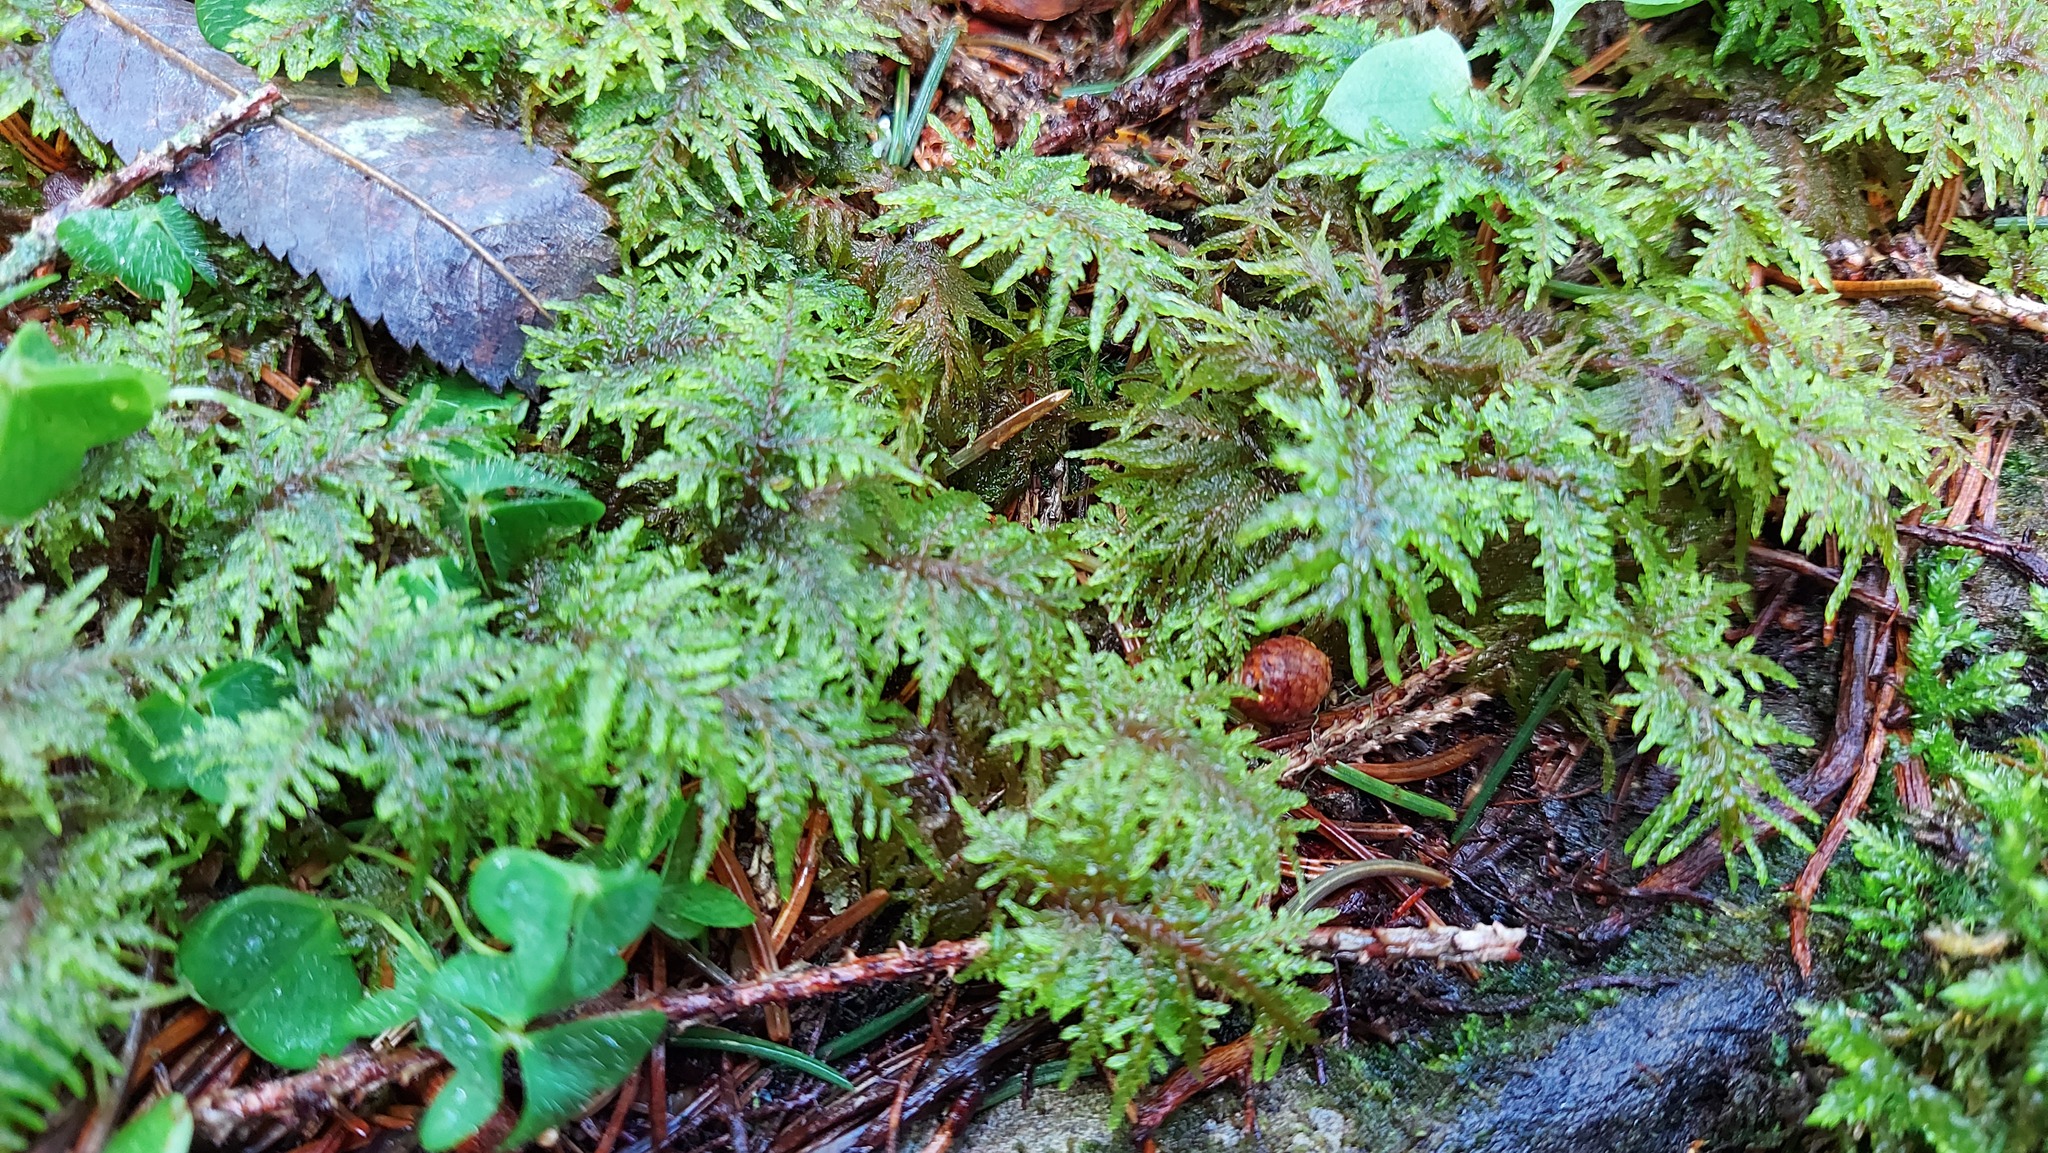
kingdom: Plantae
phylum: Bryophyta
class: Bryopsida
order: Hypnales
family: Hylocomiaceae
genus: Hylocomium
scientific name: Hylocomium splendens
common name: Stairstep moss
